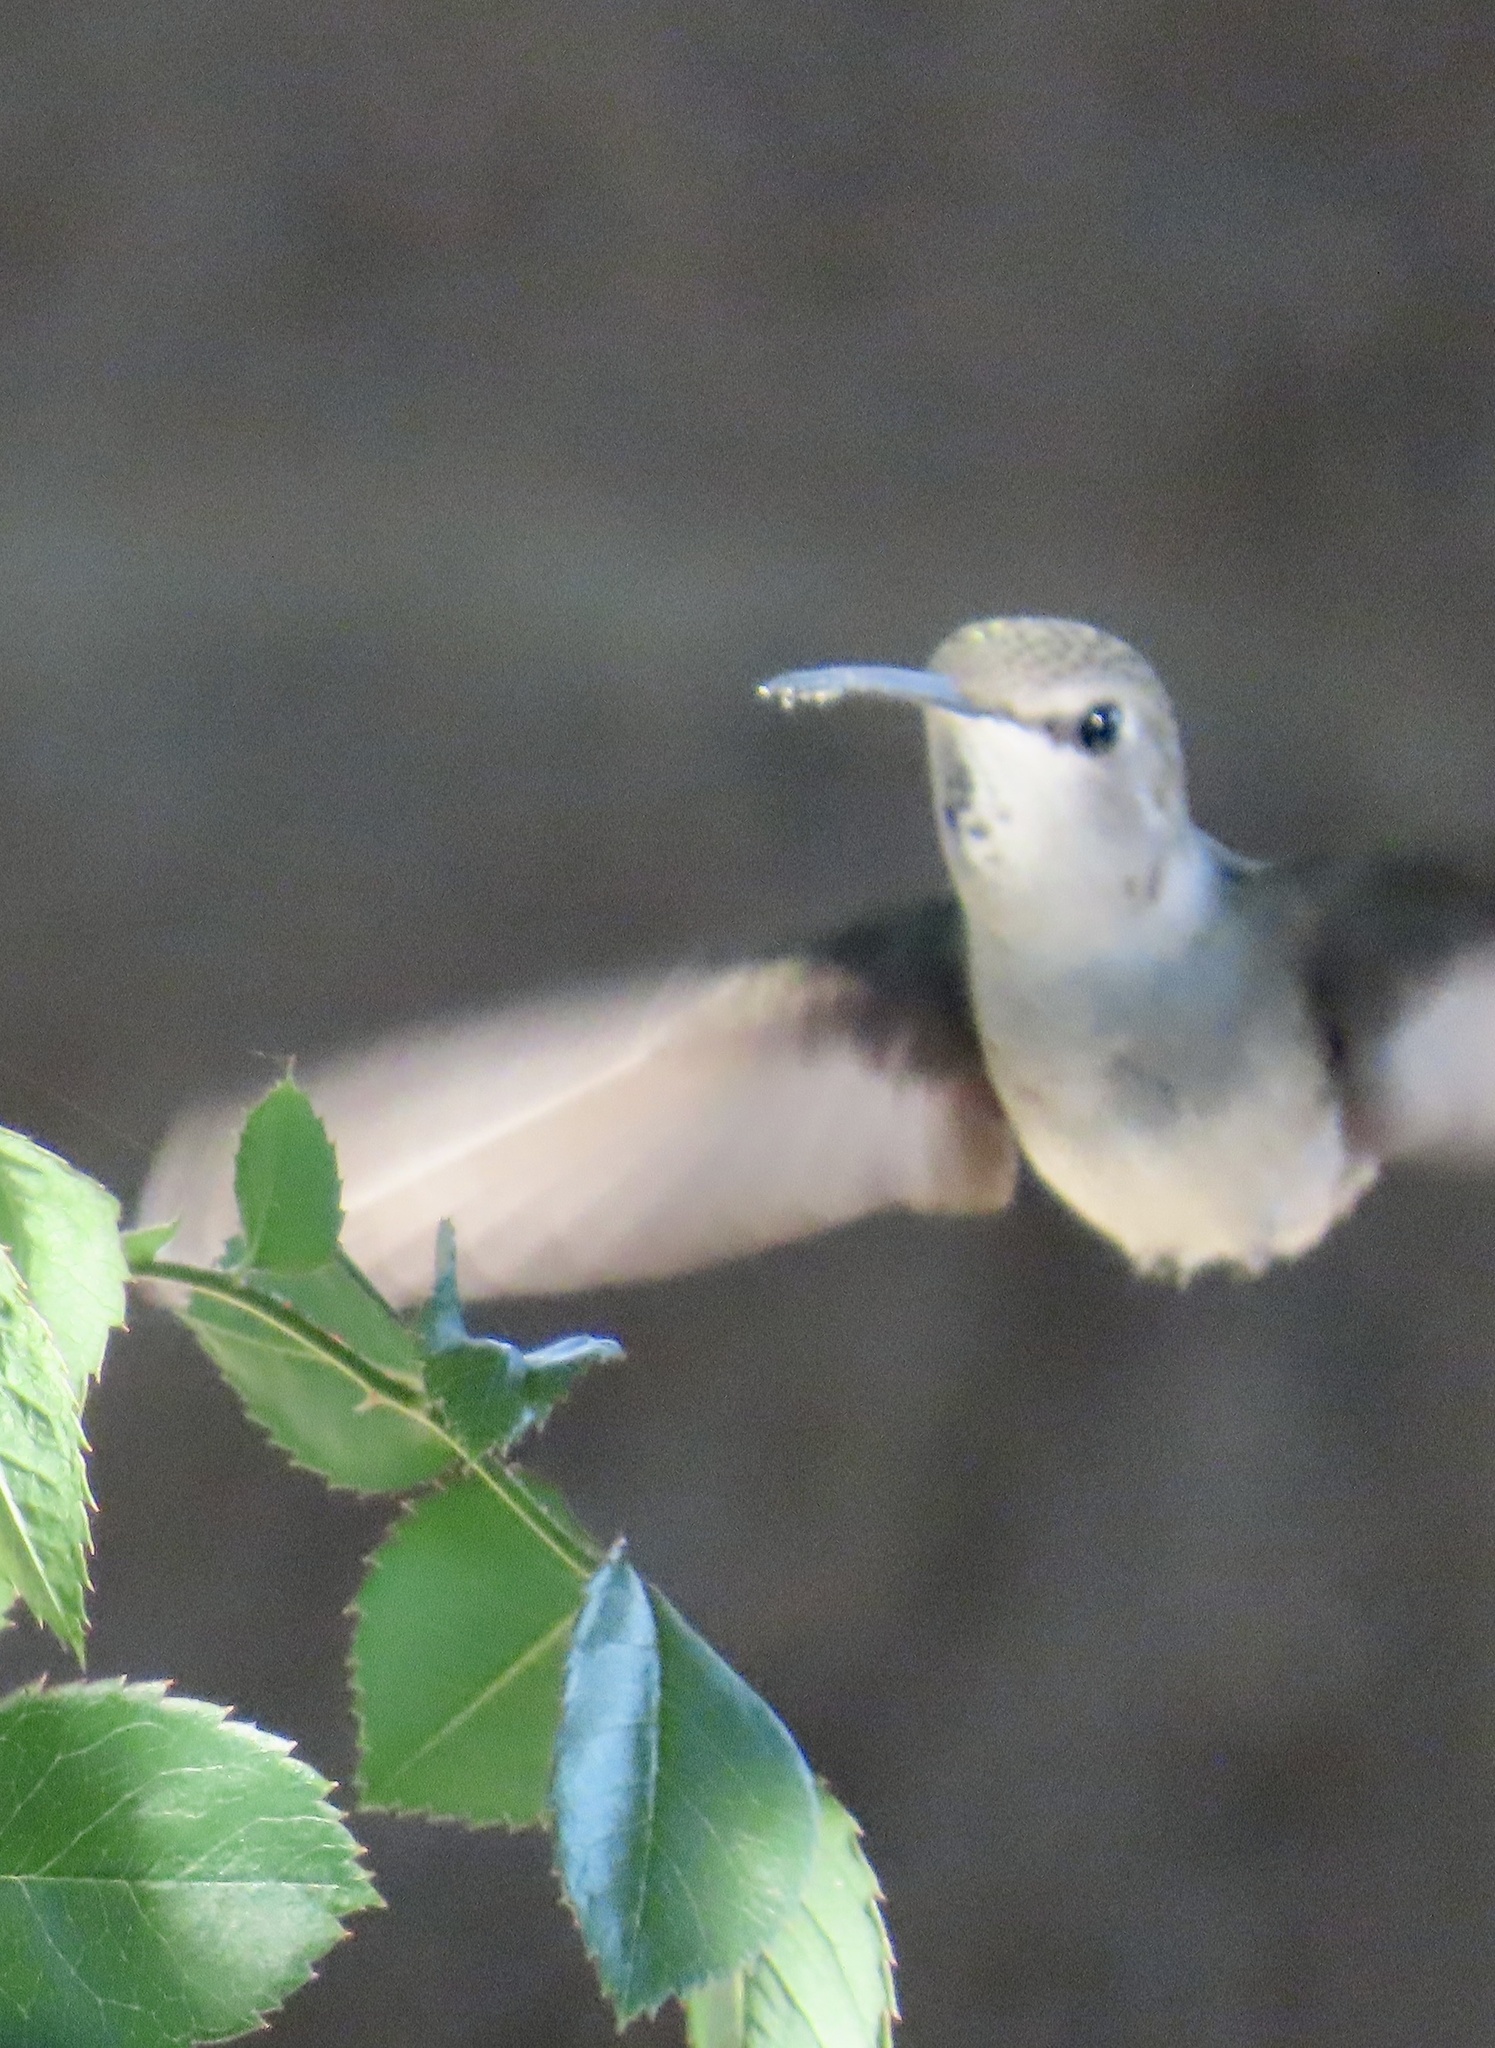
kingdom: Animalia
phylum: Chordata
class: Aves
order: Apodiformes
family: Trochilidae
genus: Calypte
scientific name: Calypte costae
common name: Costa's hummingbird
